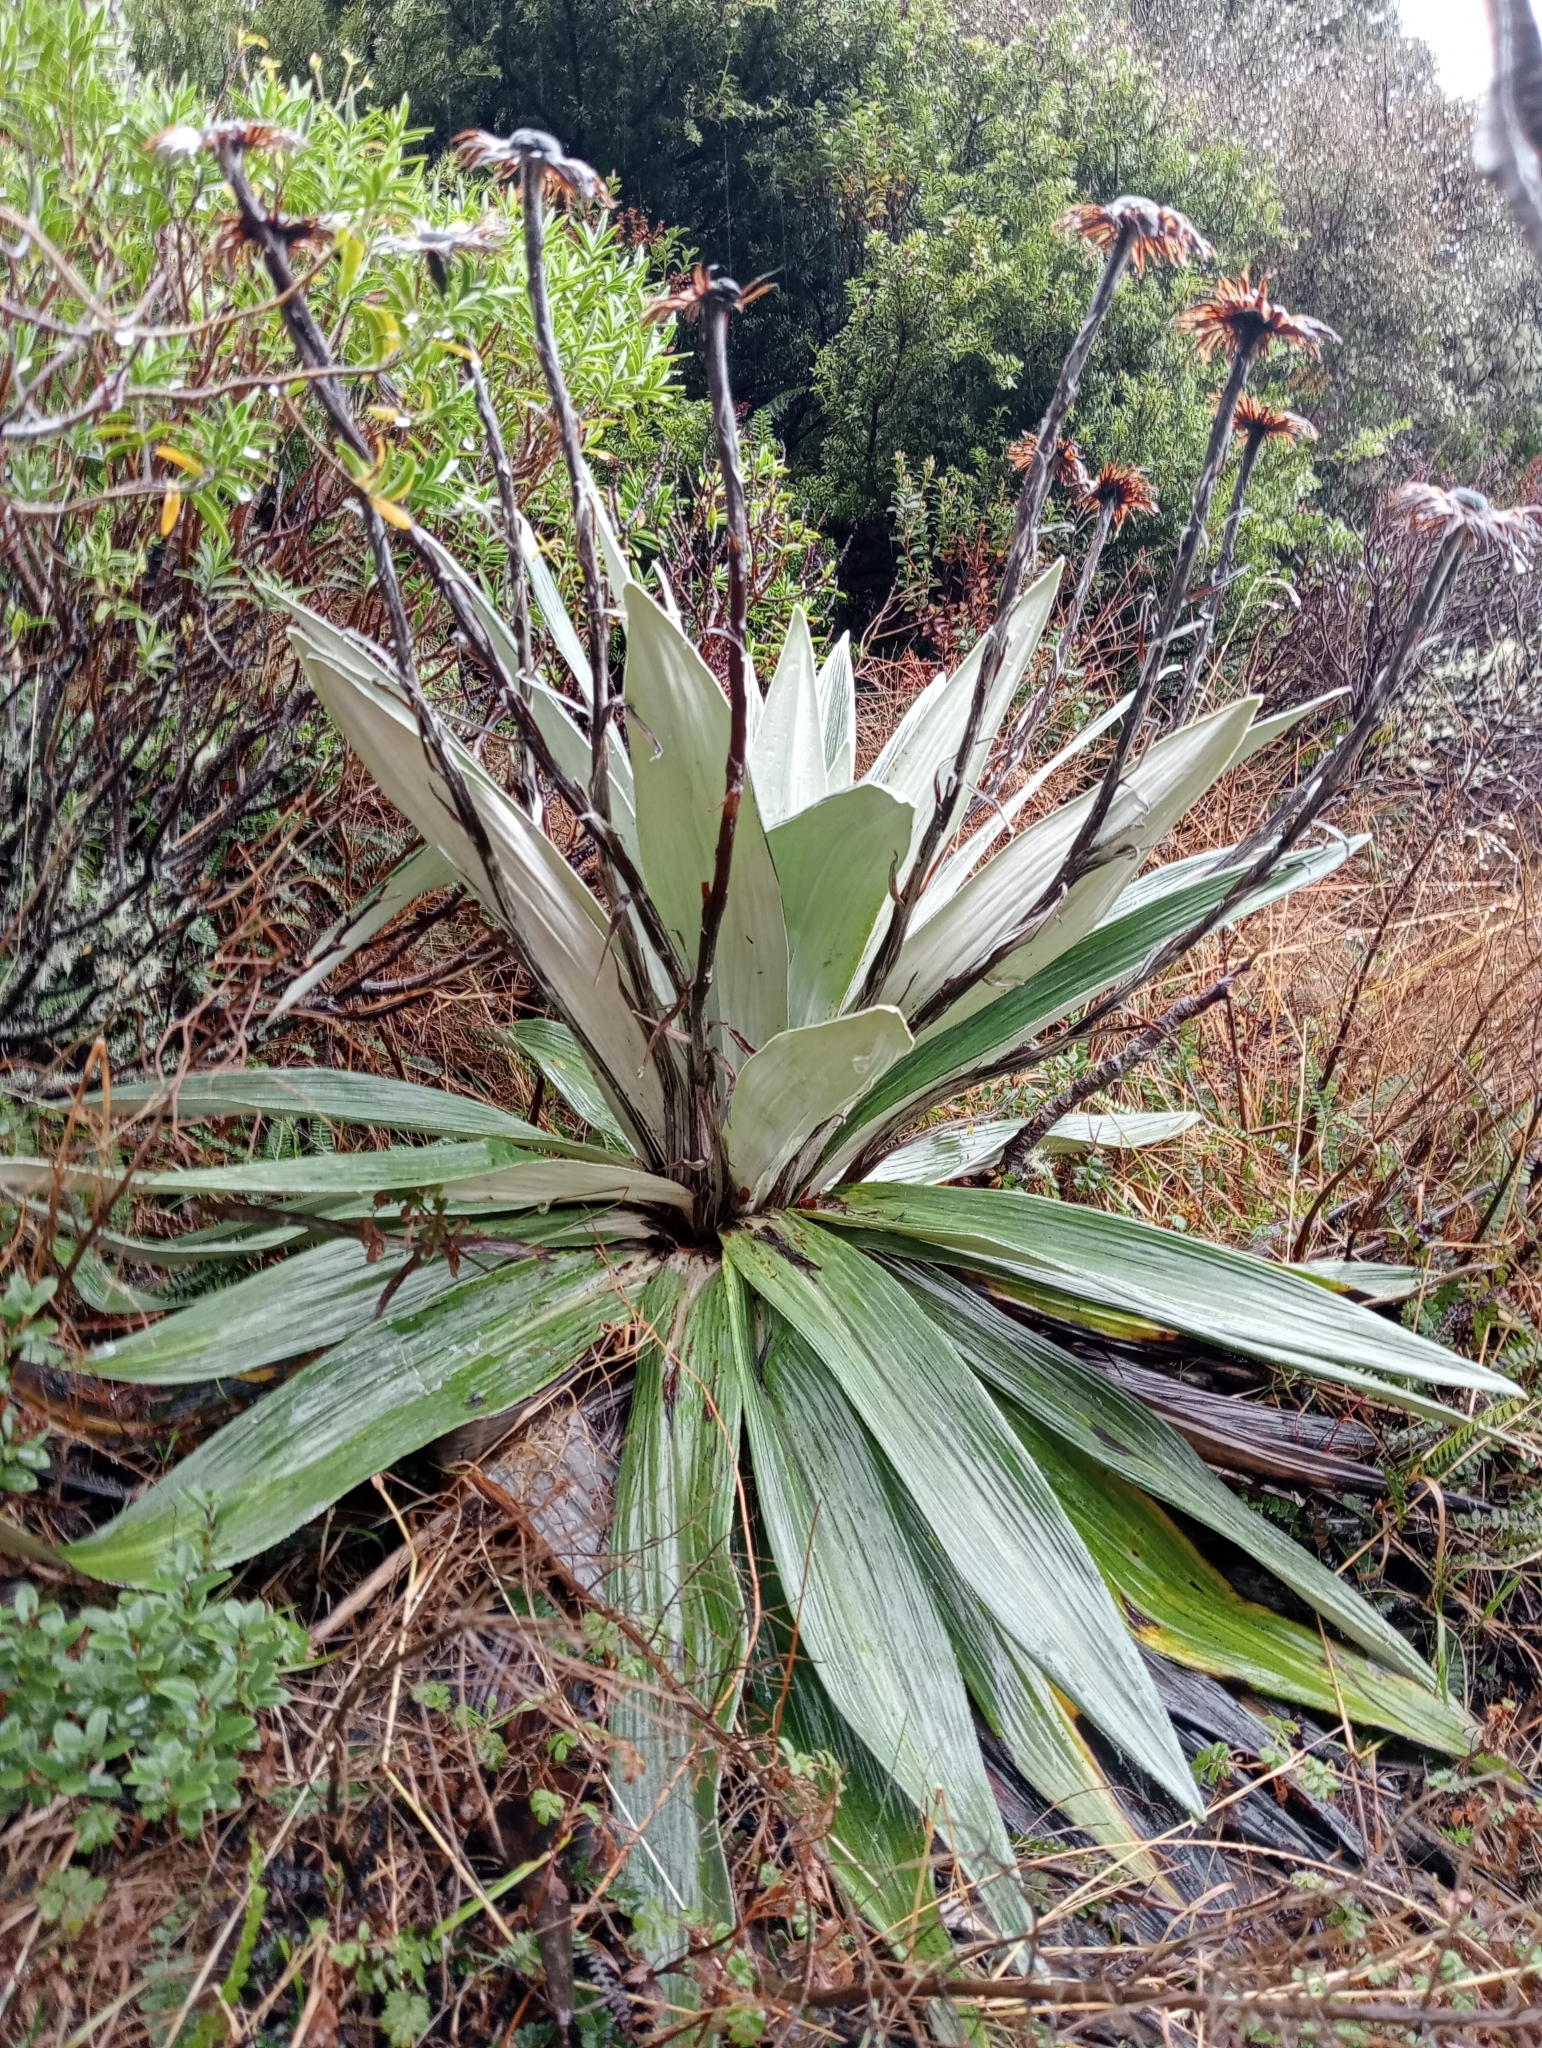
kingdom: Plantae
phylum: Tracheophyta
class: Magnoliopsida
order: Asterales
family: Asteraceae
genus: Celmisia
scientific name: Celmisia semicordata
